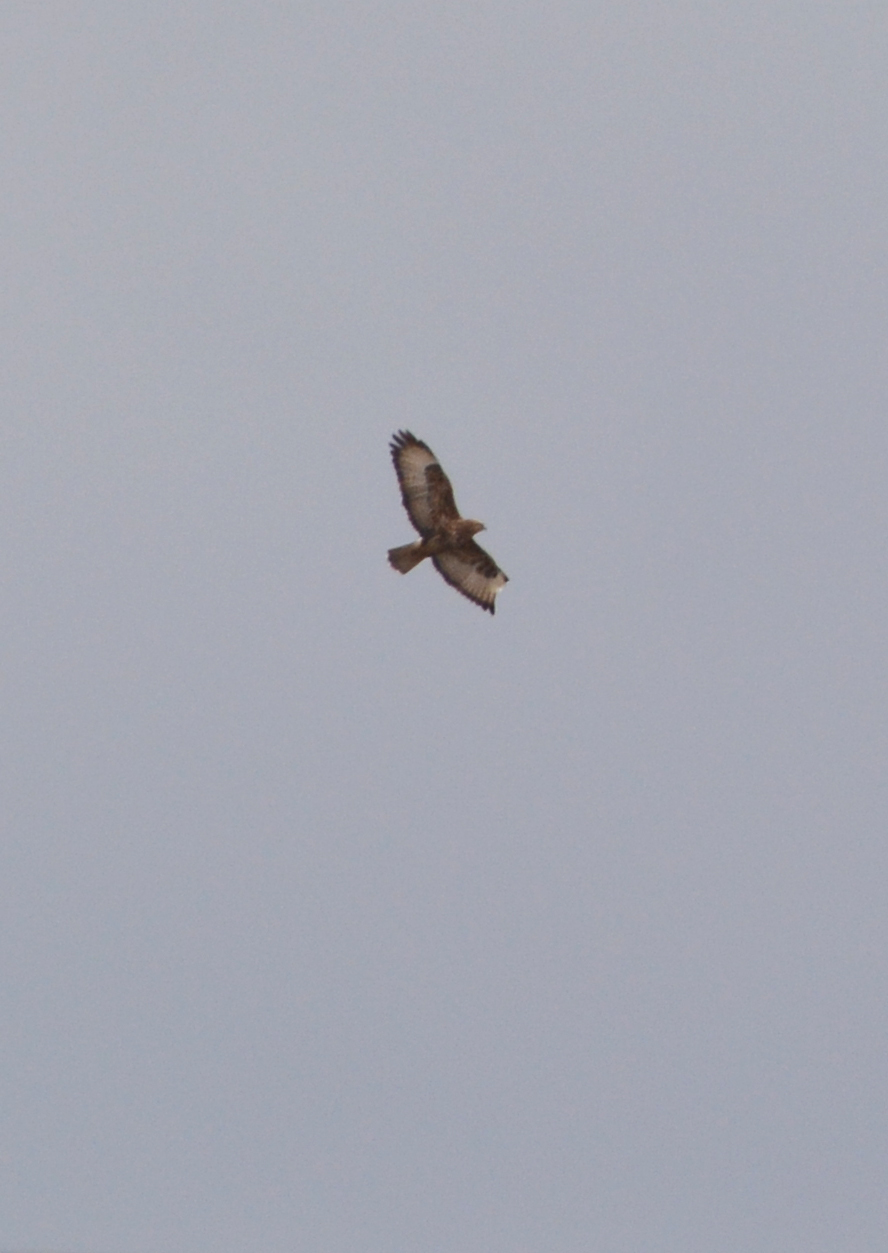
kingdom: Animalia
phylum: Chordata
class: Aves
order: Accipitriformes
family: Accipitridae
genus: Buteo
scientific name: Buteo buteo
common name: Common buzzard
